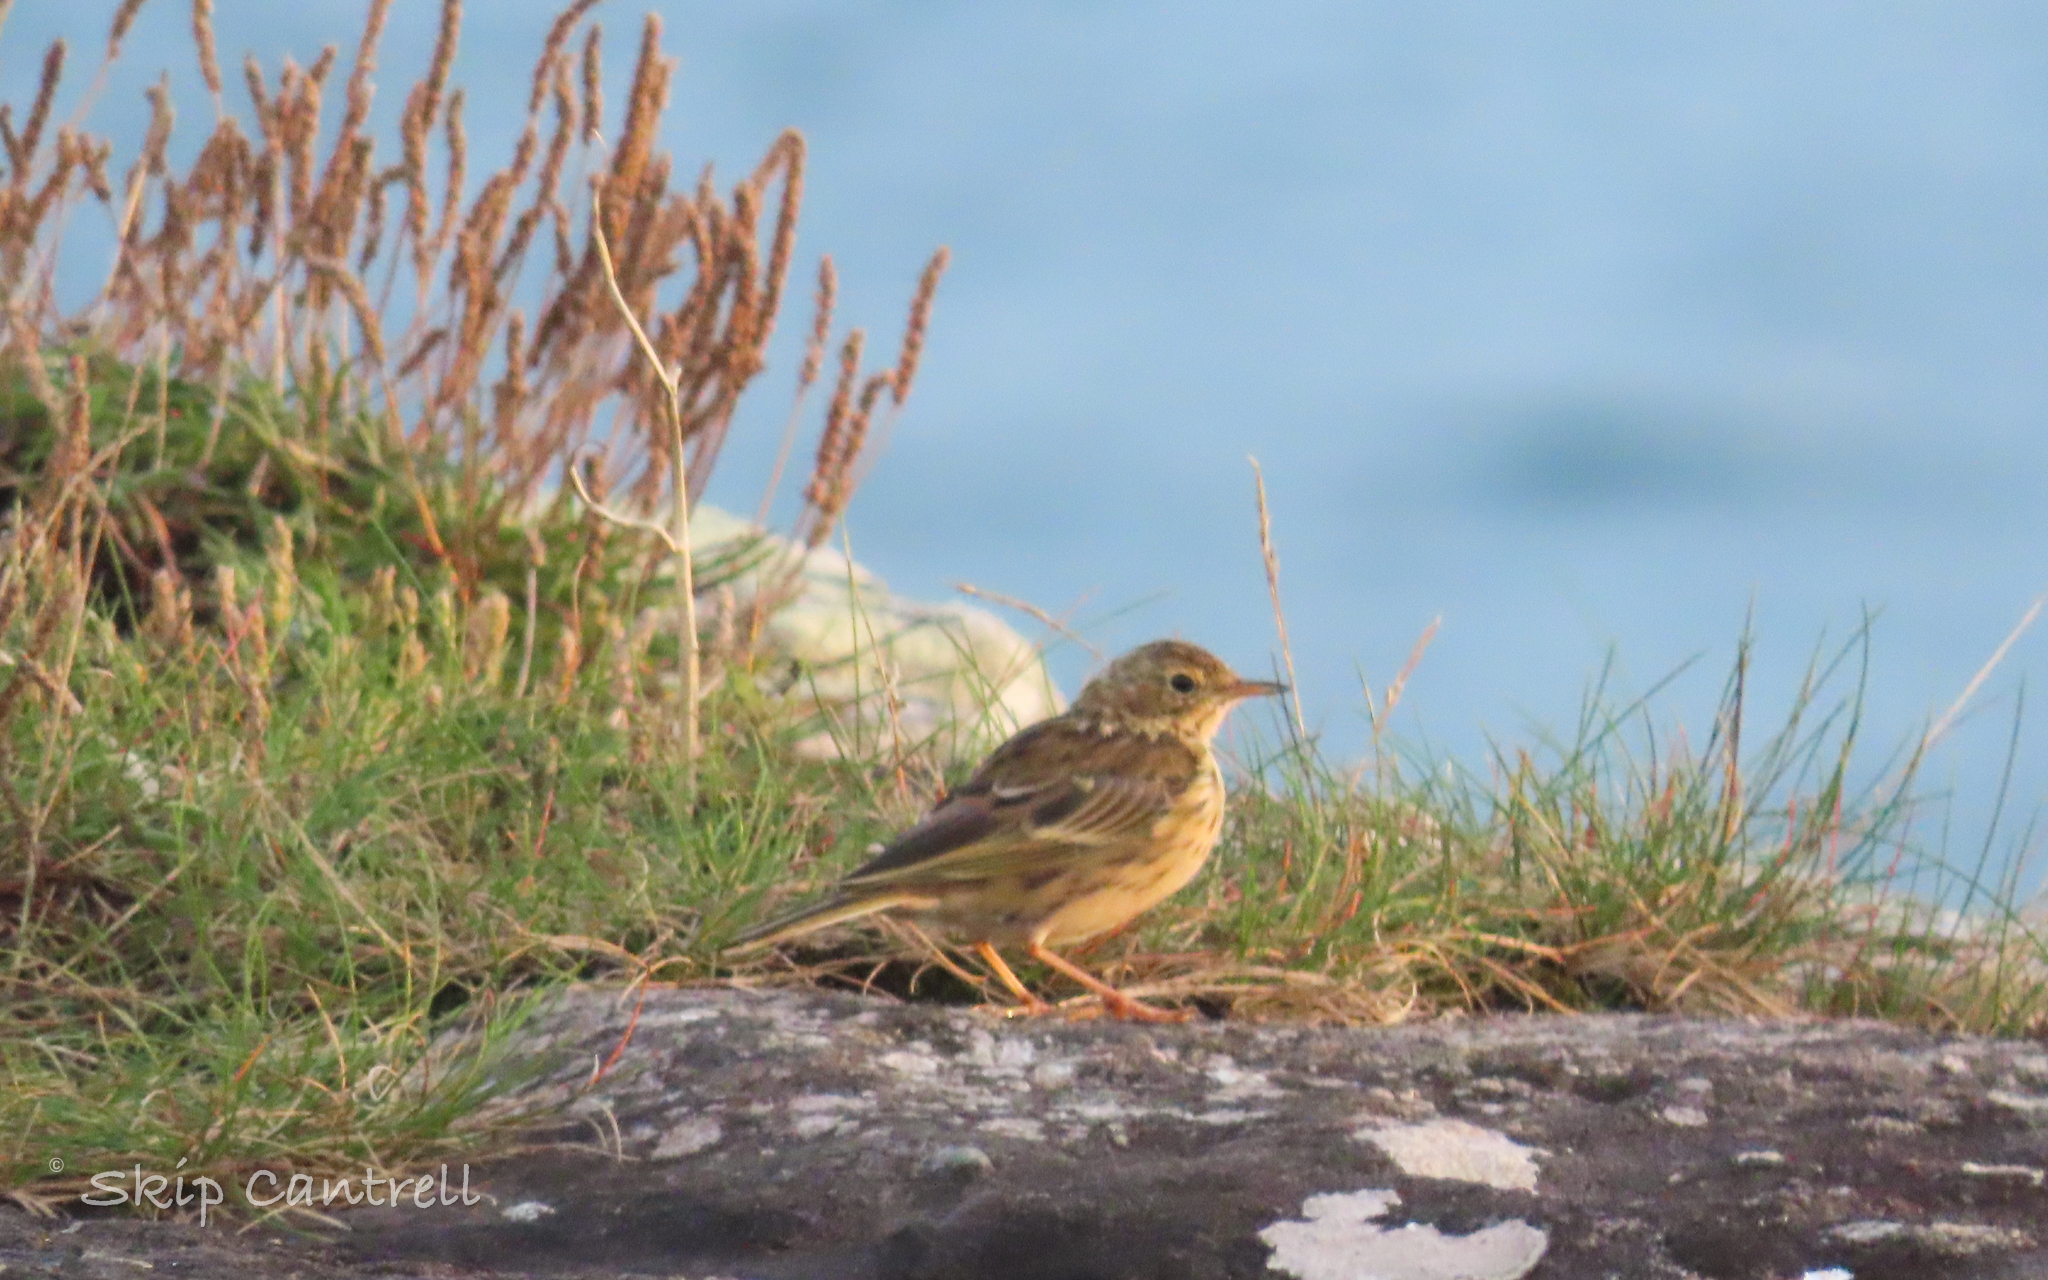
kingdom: Animalia
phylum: Chordata
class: Aves
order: Passeriformes
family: Motacillidae
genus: Anthus
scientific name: Anthus pratensis
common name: Meadow pipit
